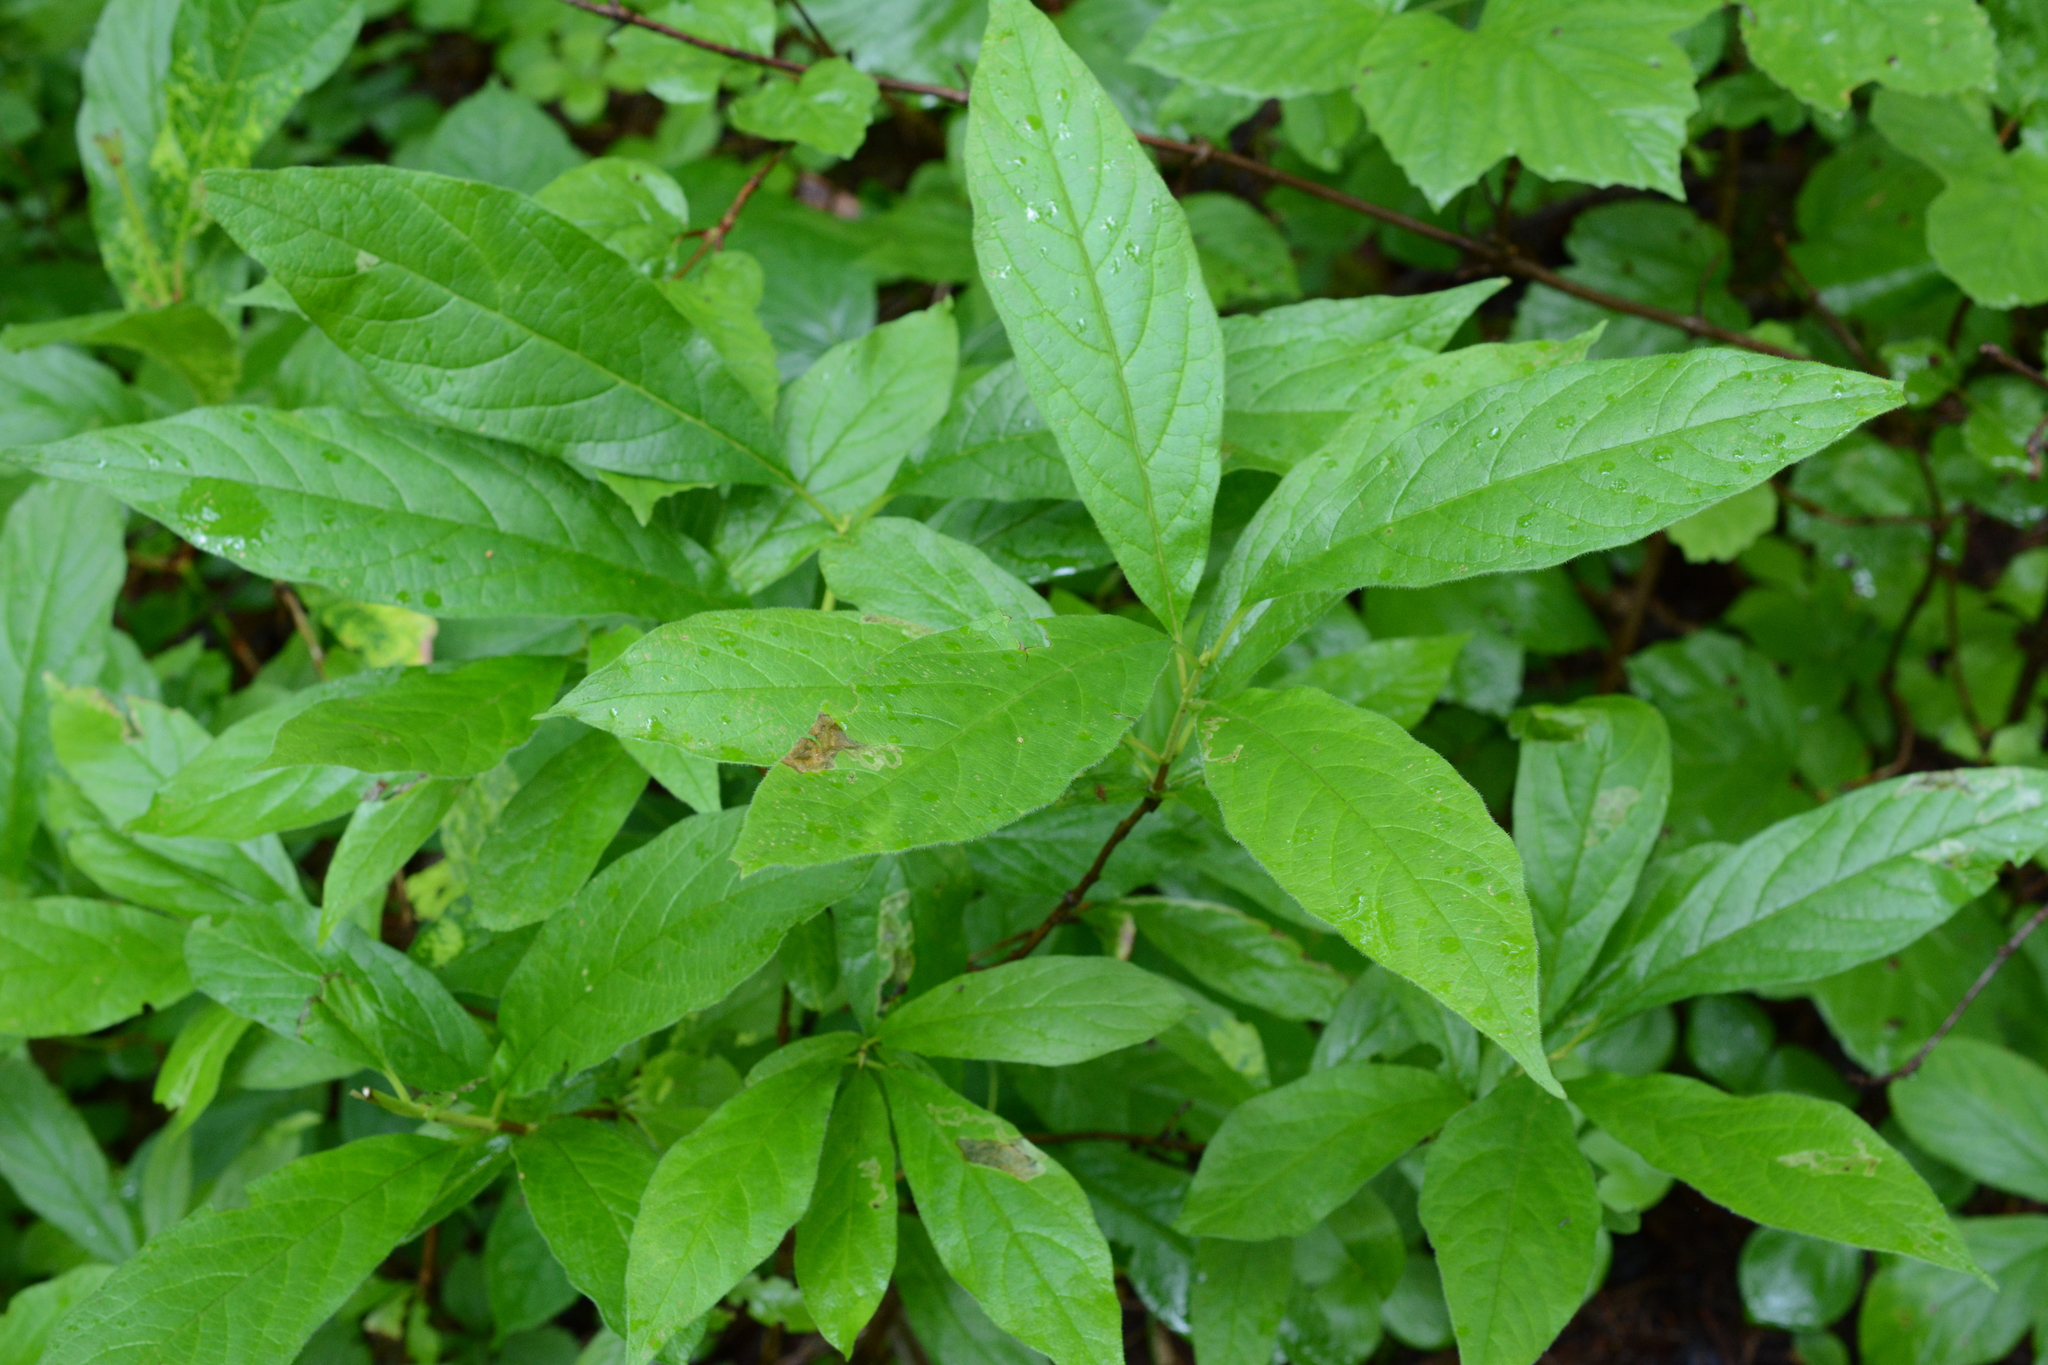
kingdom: Plantae
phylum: Tracheophyta
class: Magnoliopsida
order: Ericales
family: Ericaceae
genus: Rhododendron
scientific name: Rhododendron albiflorum
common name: White rhododendron
